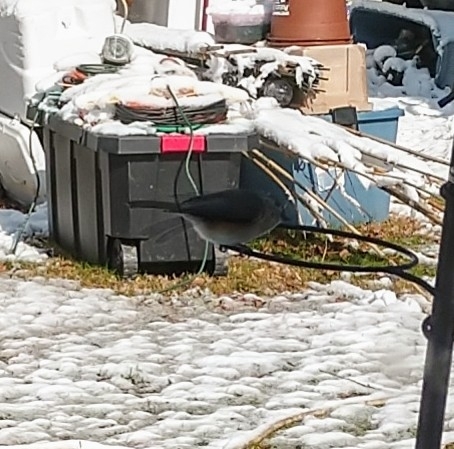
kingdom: Animalia
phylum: Chordata
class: Aves
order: Passeriformes
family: Paridae
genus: Baeolophus
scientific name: Baeolophus bicolor
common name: Tufted titmouse
